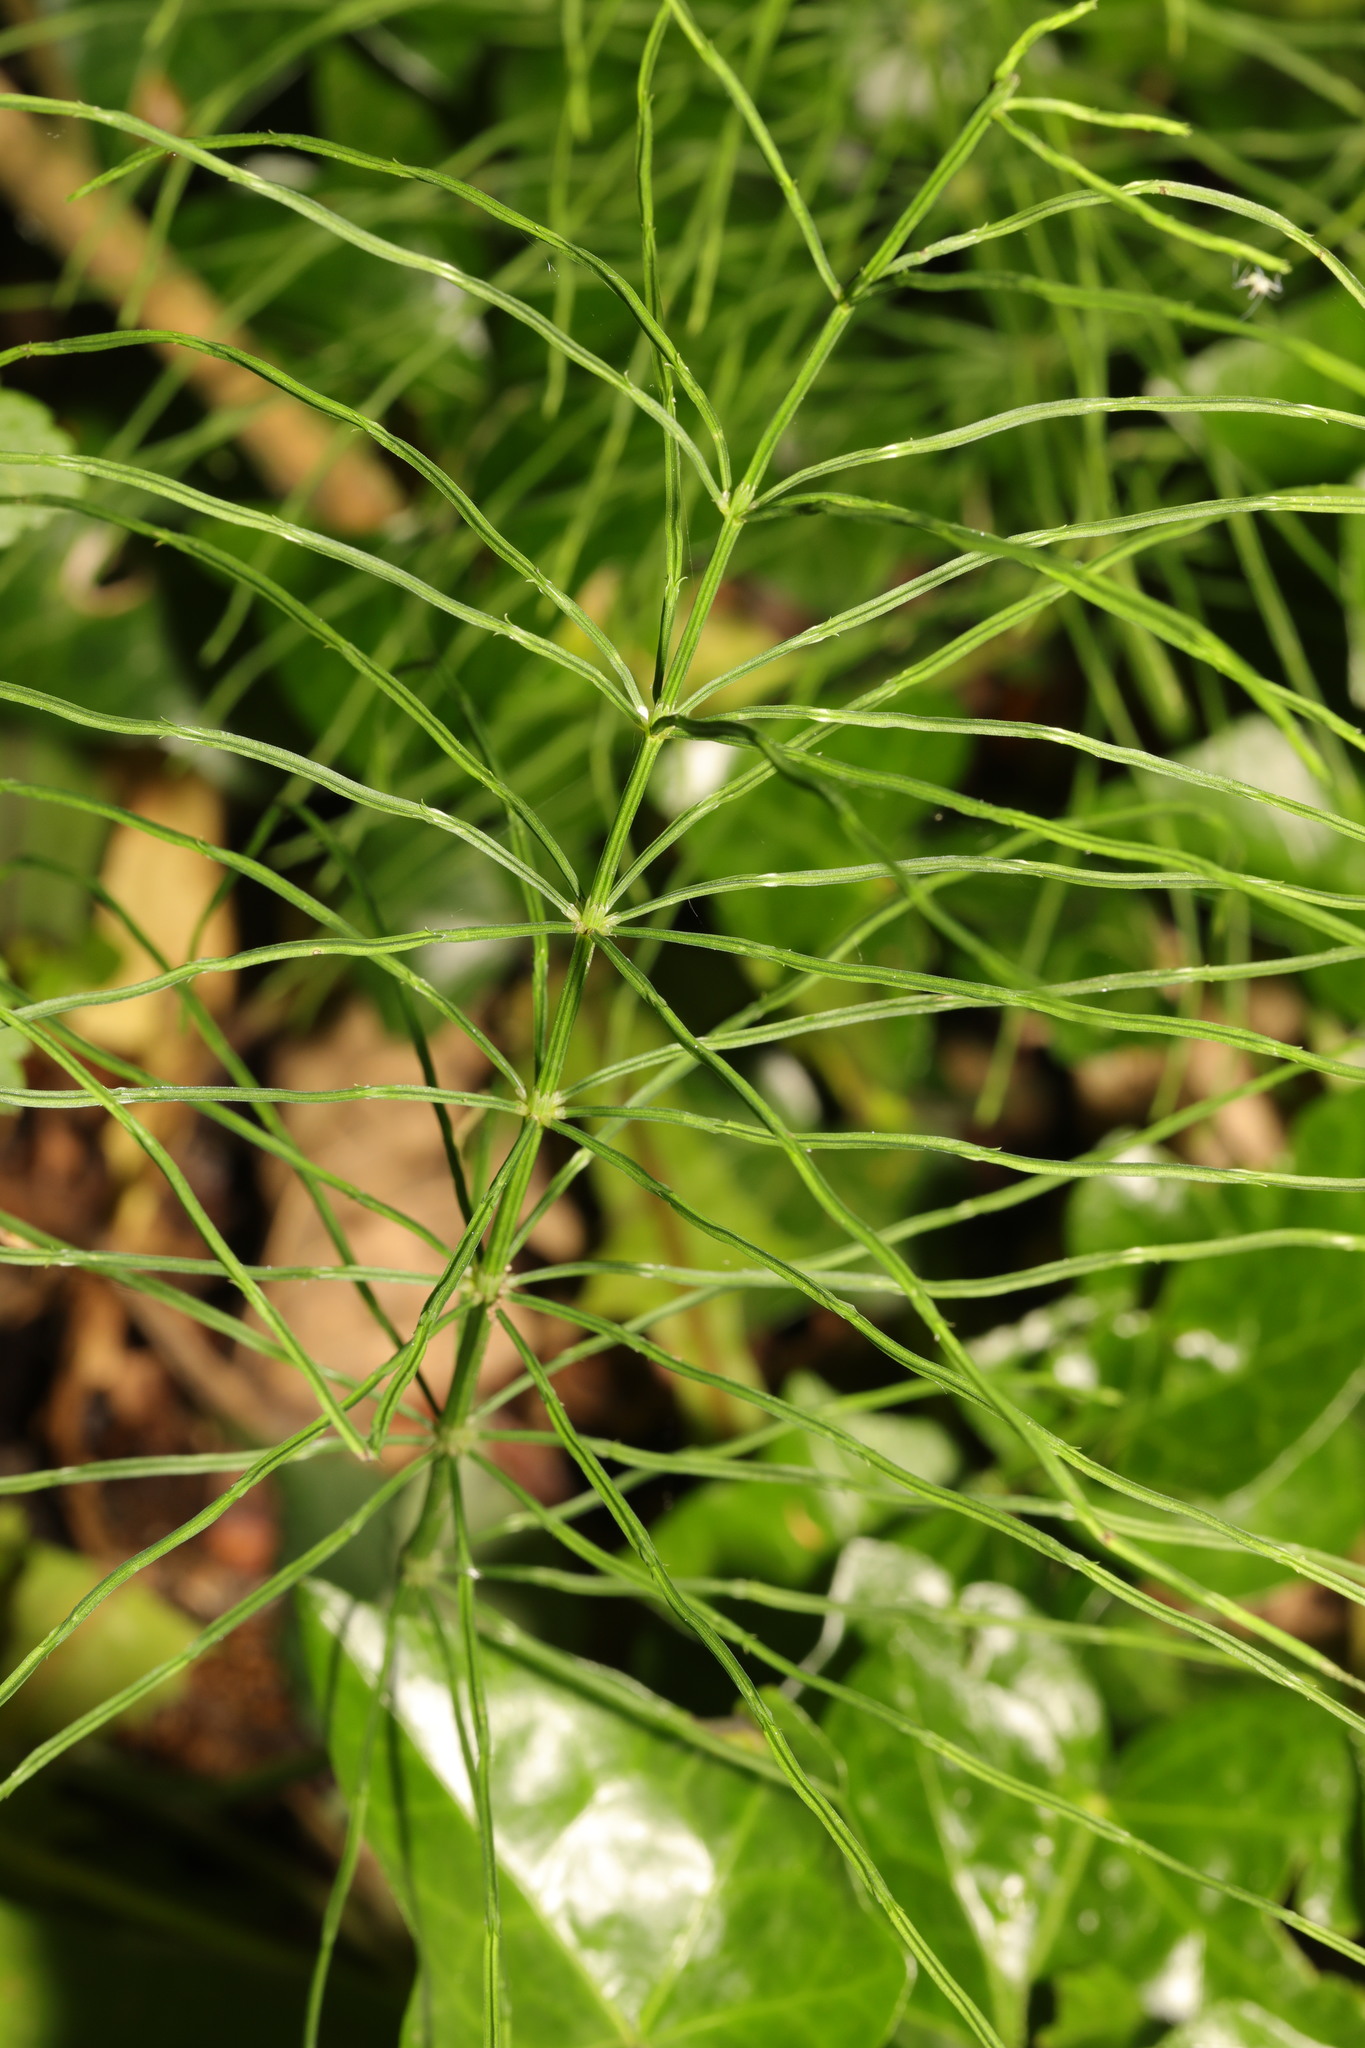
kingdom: Plantae
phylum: Tracheophyta
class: Polypodiopsida
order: Equisetales
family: Equisetaceae
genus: Equisetum
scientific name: Equisetum arvense
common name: Field horsetail
